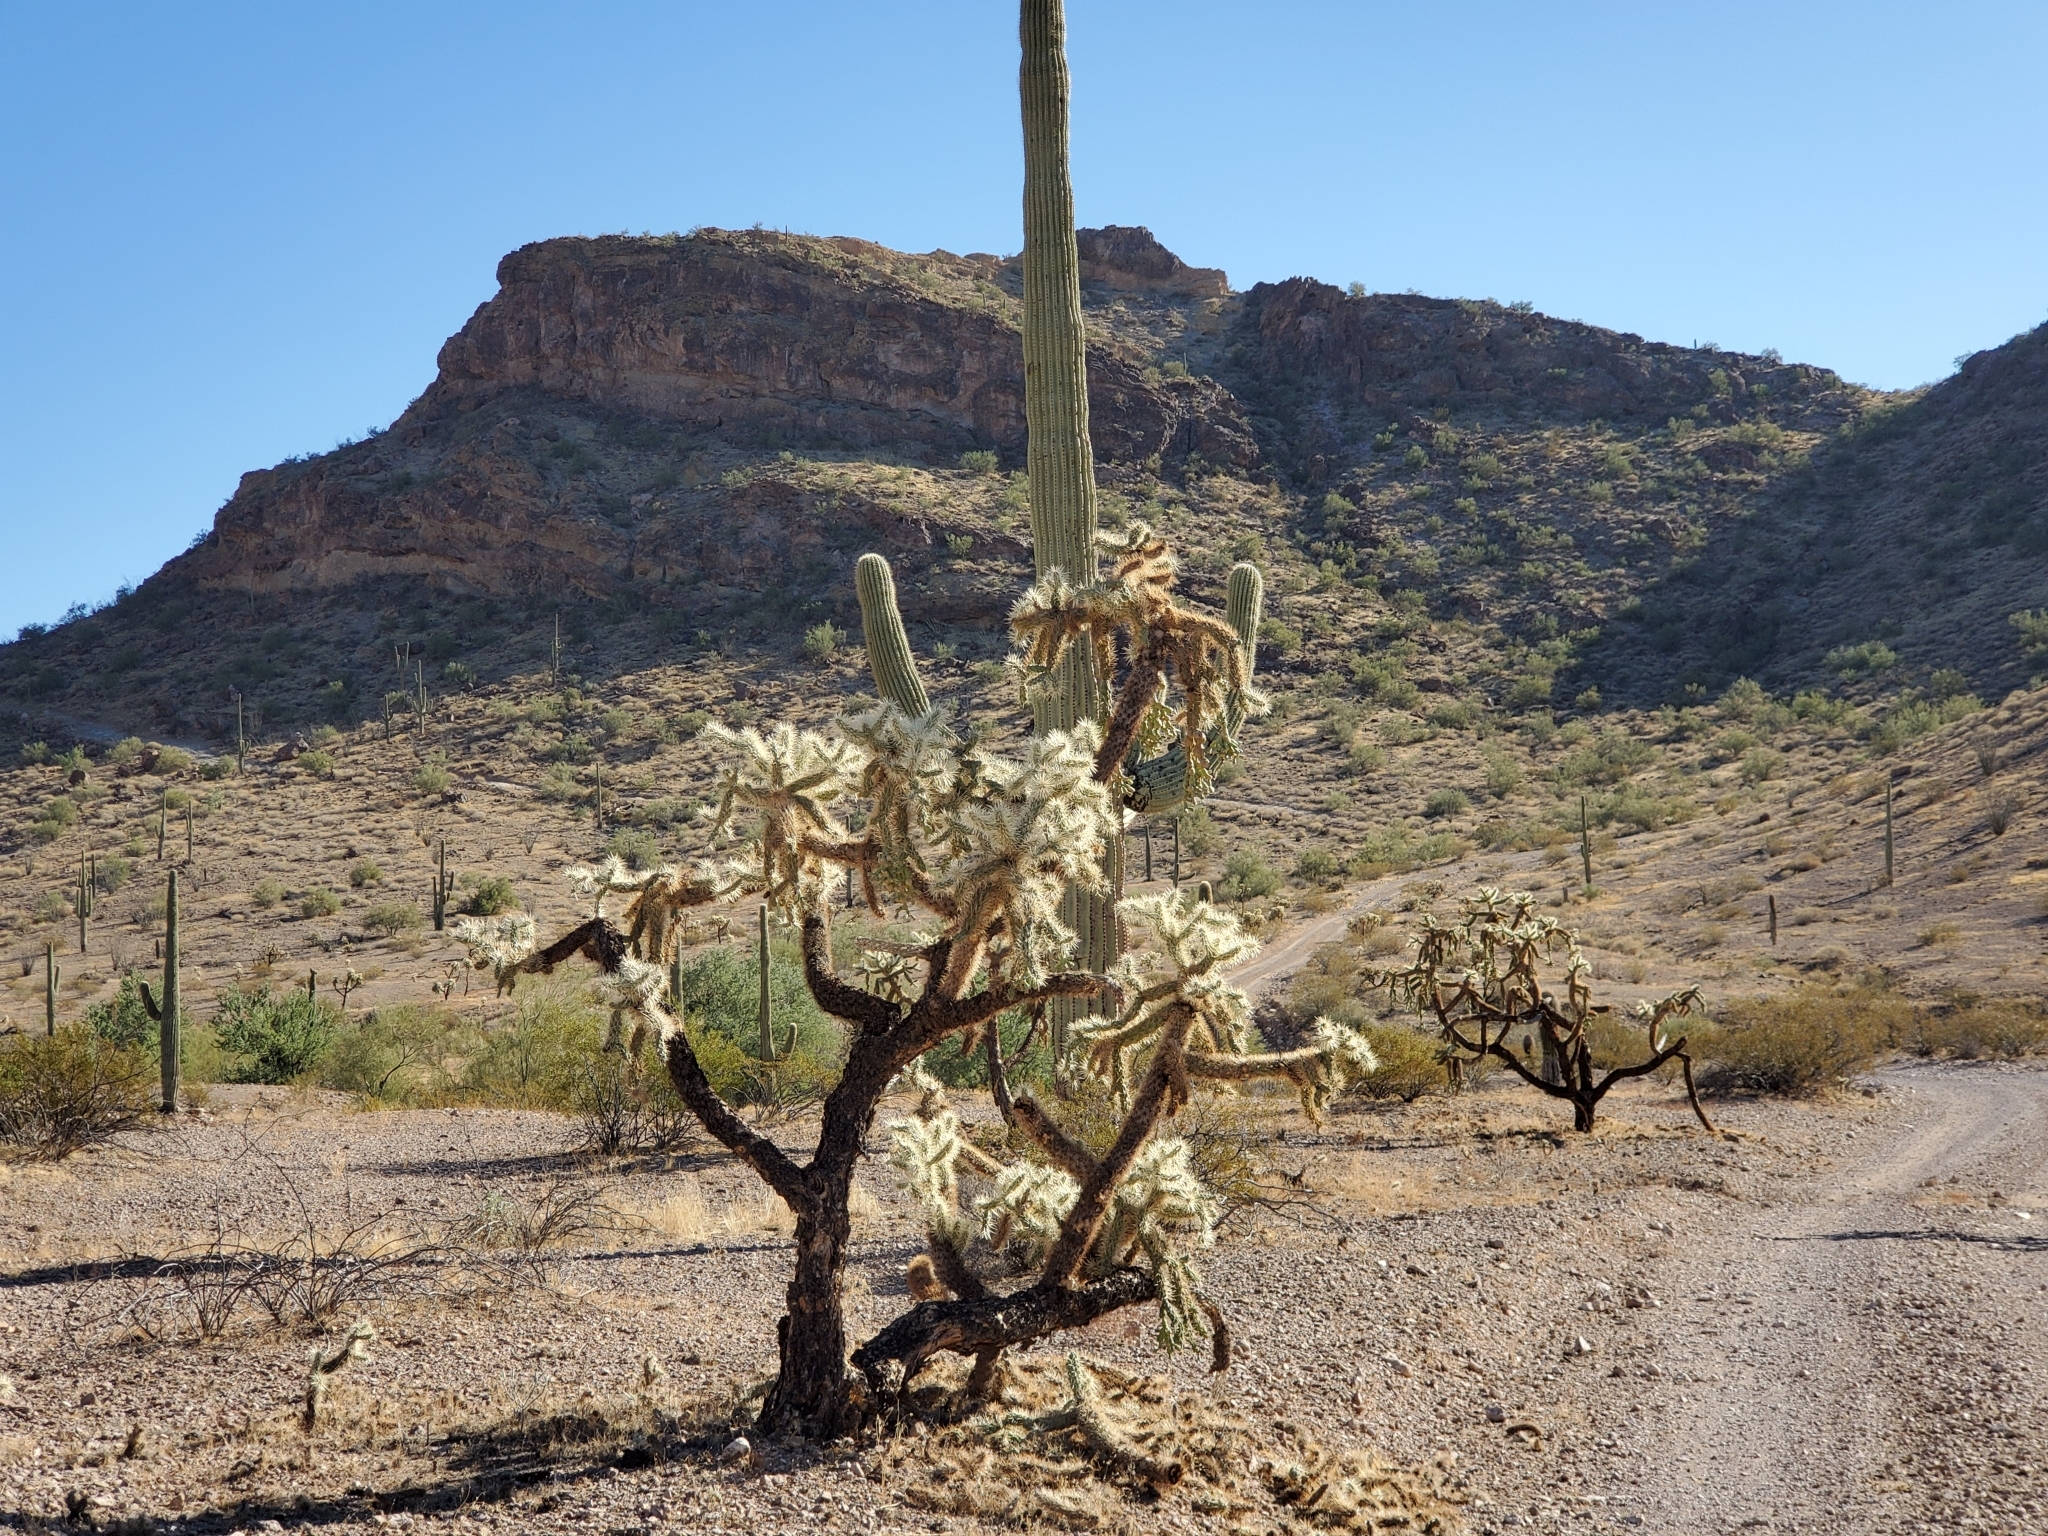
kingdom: Plantae
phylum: Tracheophyta
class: Magnoliopsida
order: Caryophyllales
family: Cactaceae
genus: Cylindropuntia
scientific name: Cylindropuntia fulgida
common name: Jumping cholla
